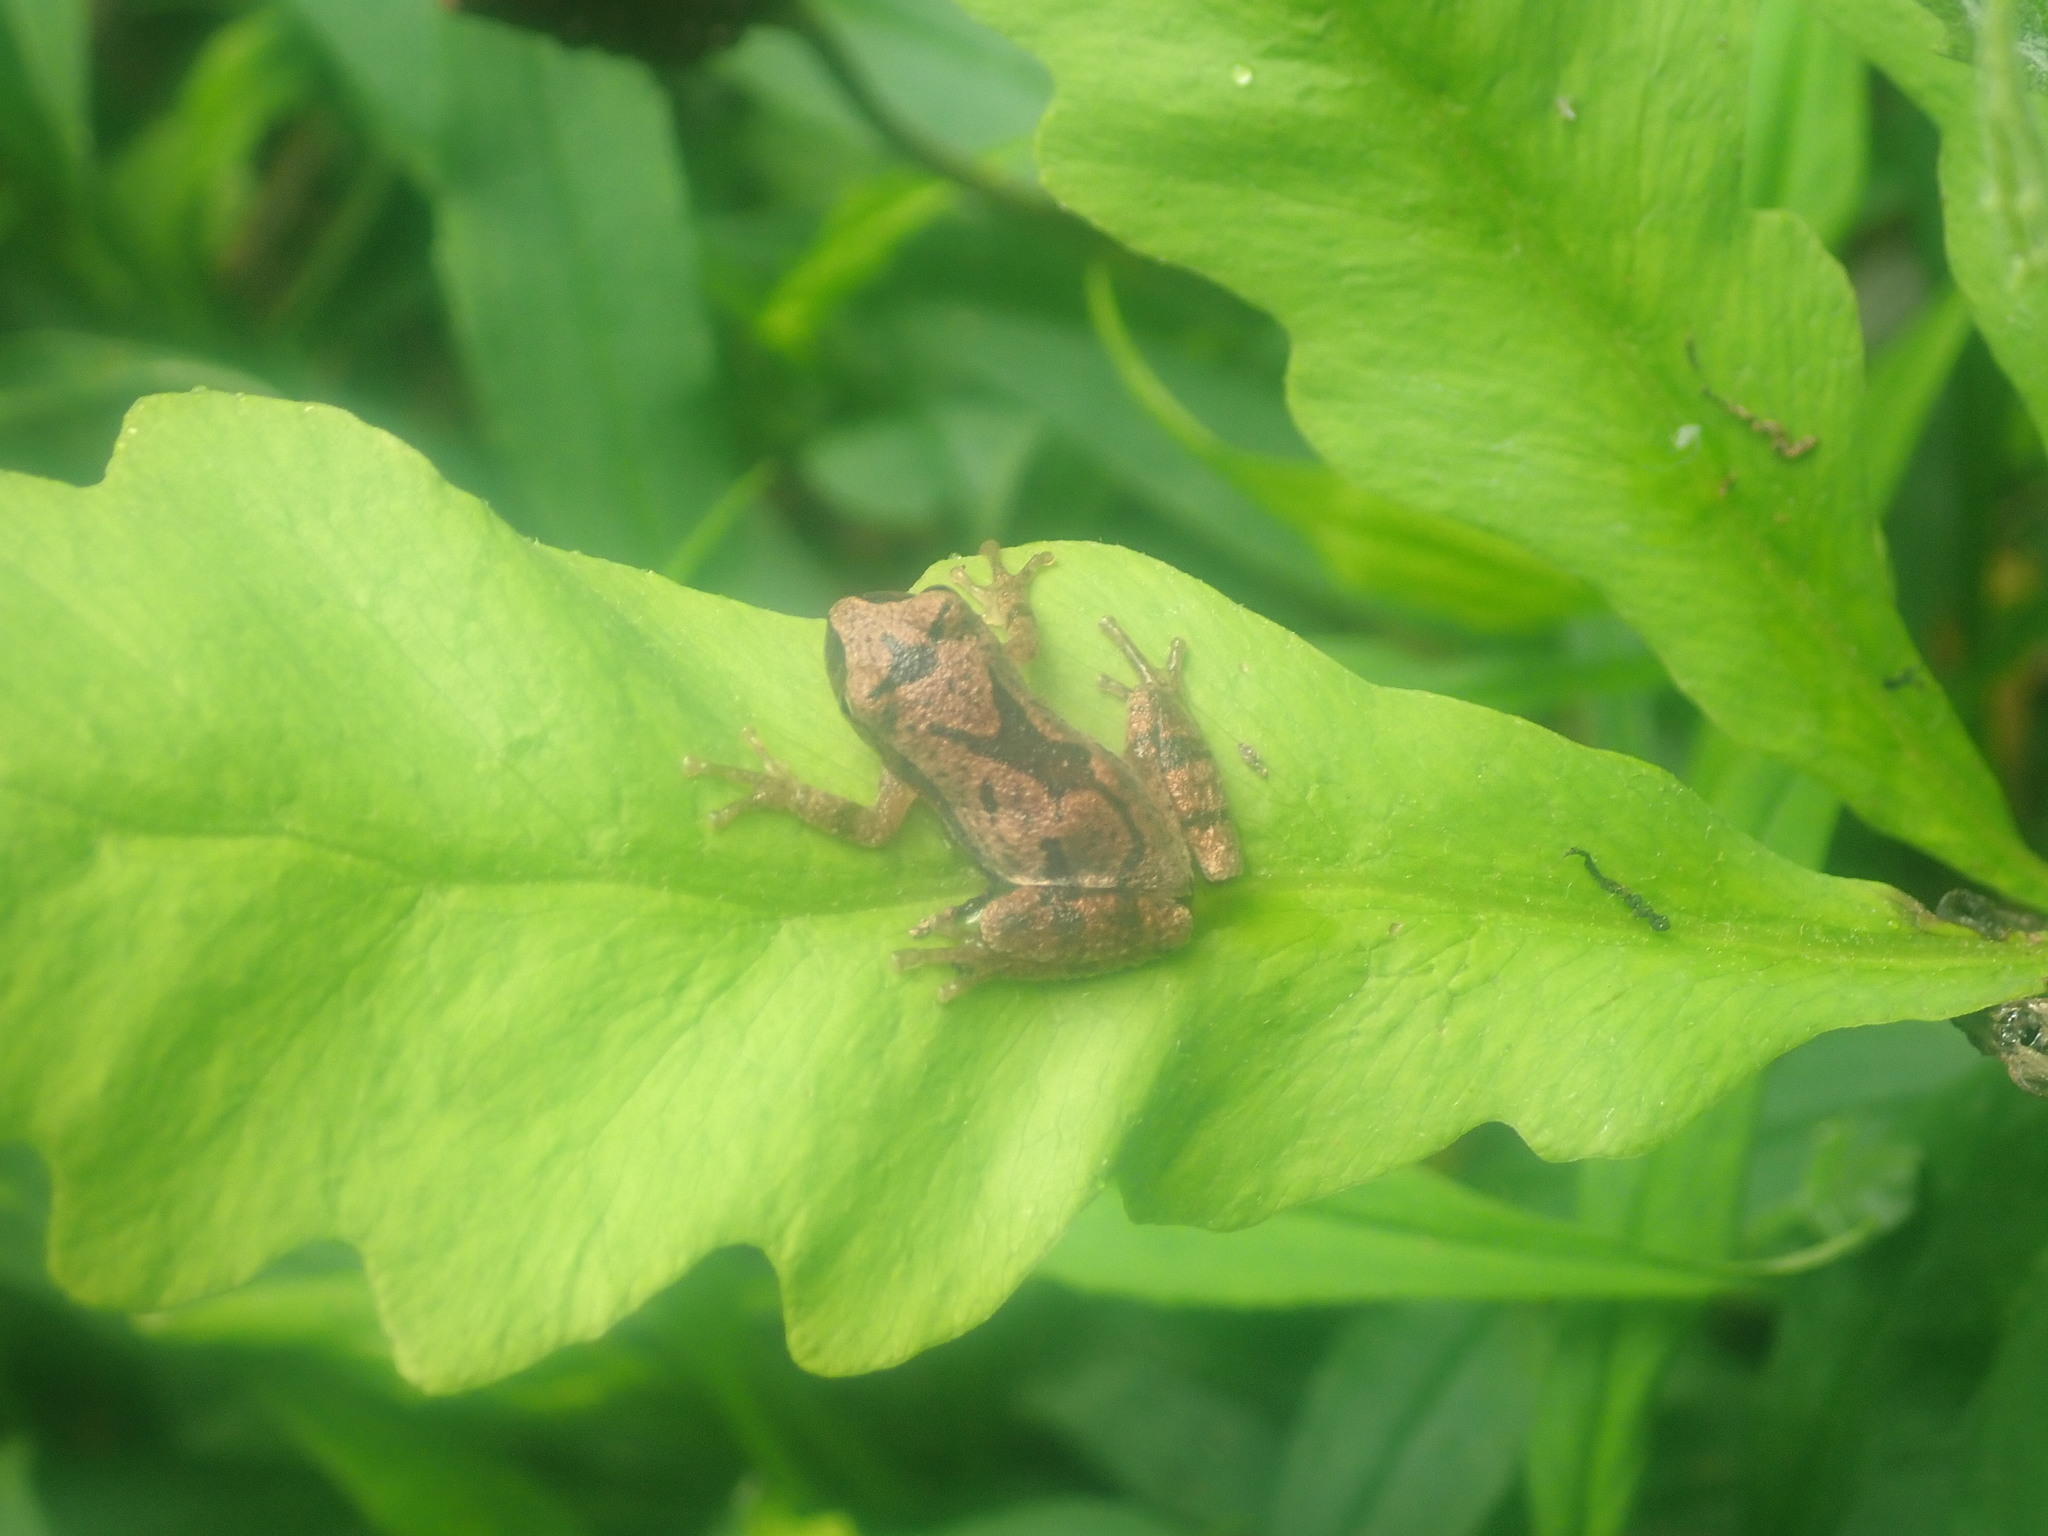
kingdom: Animalia
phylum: Chordata
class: Amphibia
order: Anura
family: Hylidae
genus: Pseudacris
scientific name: Pseudacris crucifer
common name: Spring peeper
